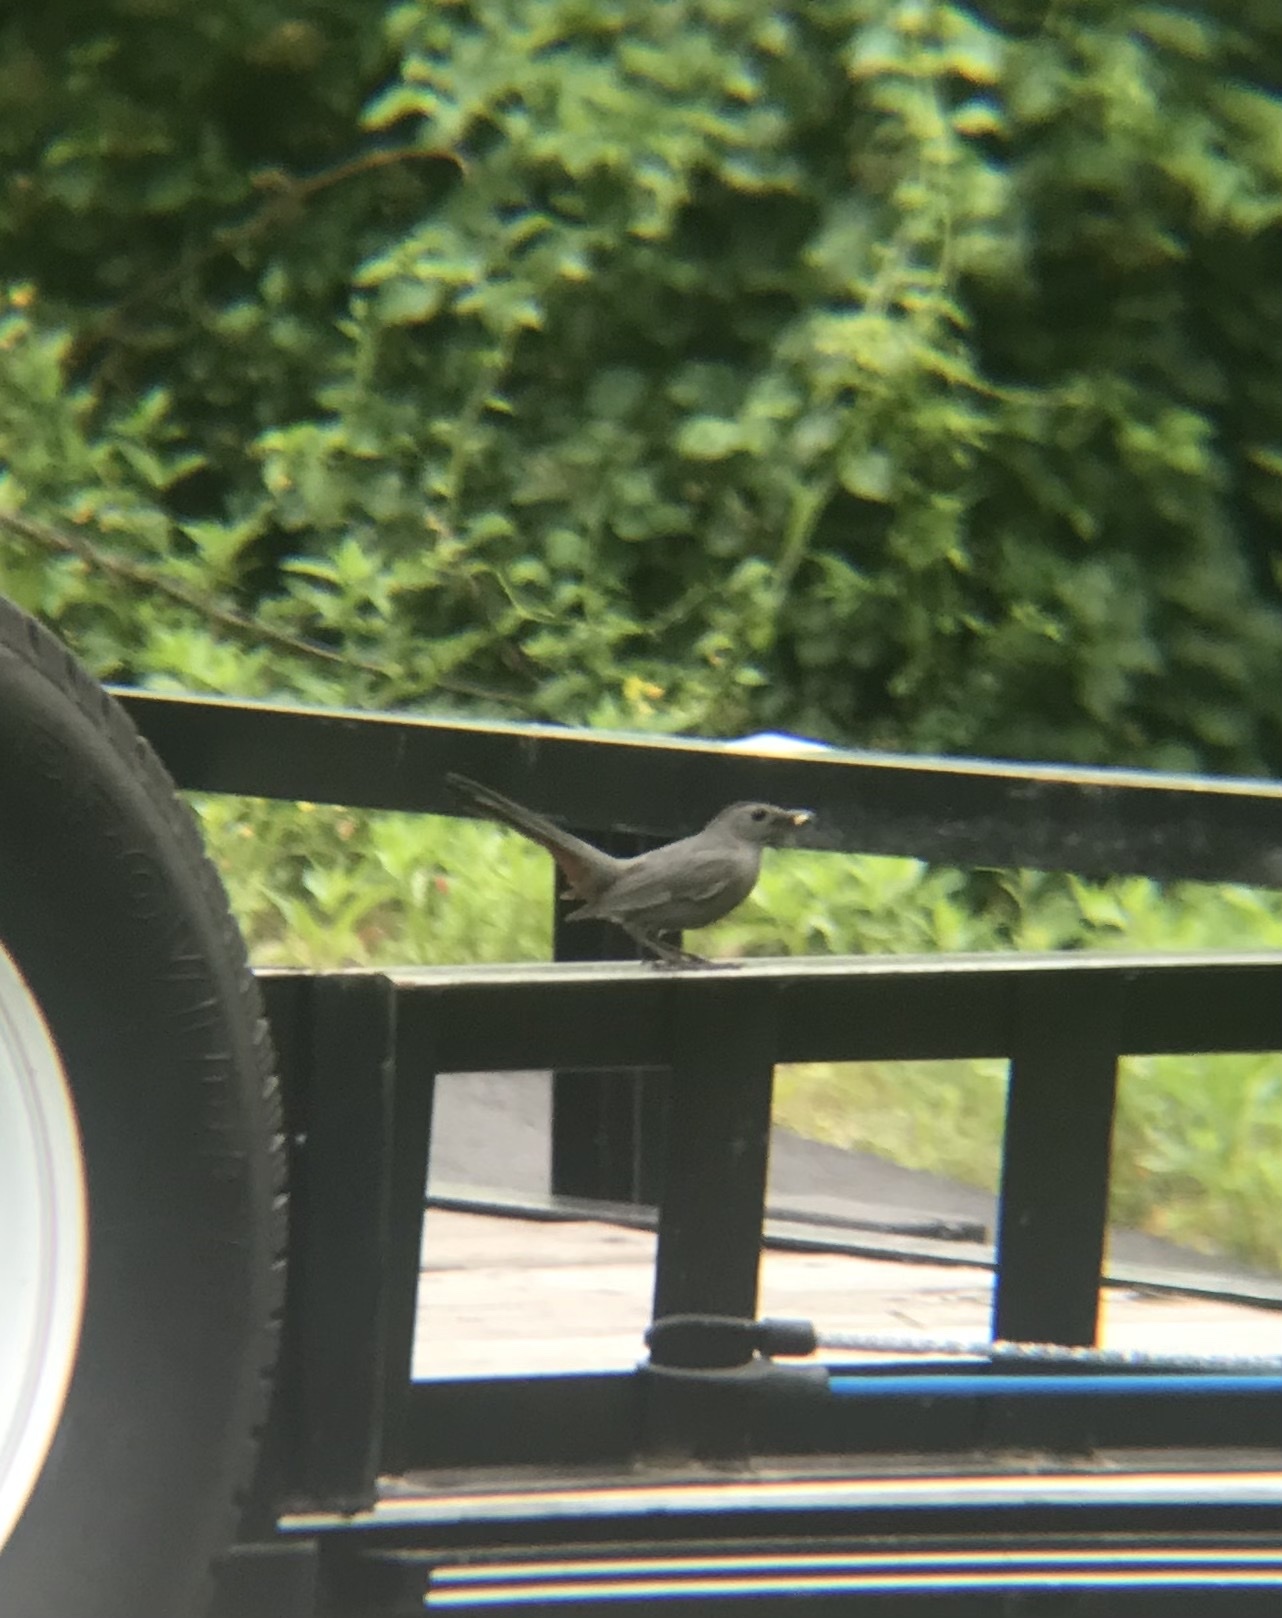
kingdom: Animalia
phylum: Chordata
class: Aves
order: Passeriformes
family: Mimidae
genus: Dumetella
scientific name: Dumetella carolinensis
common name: Gray catbird
